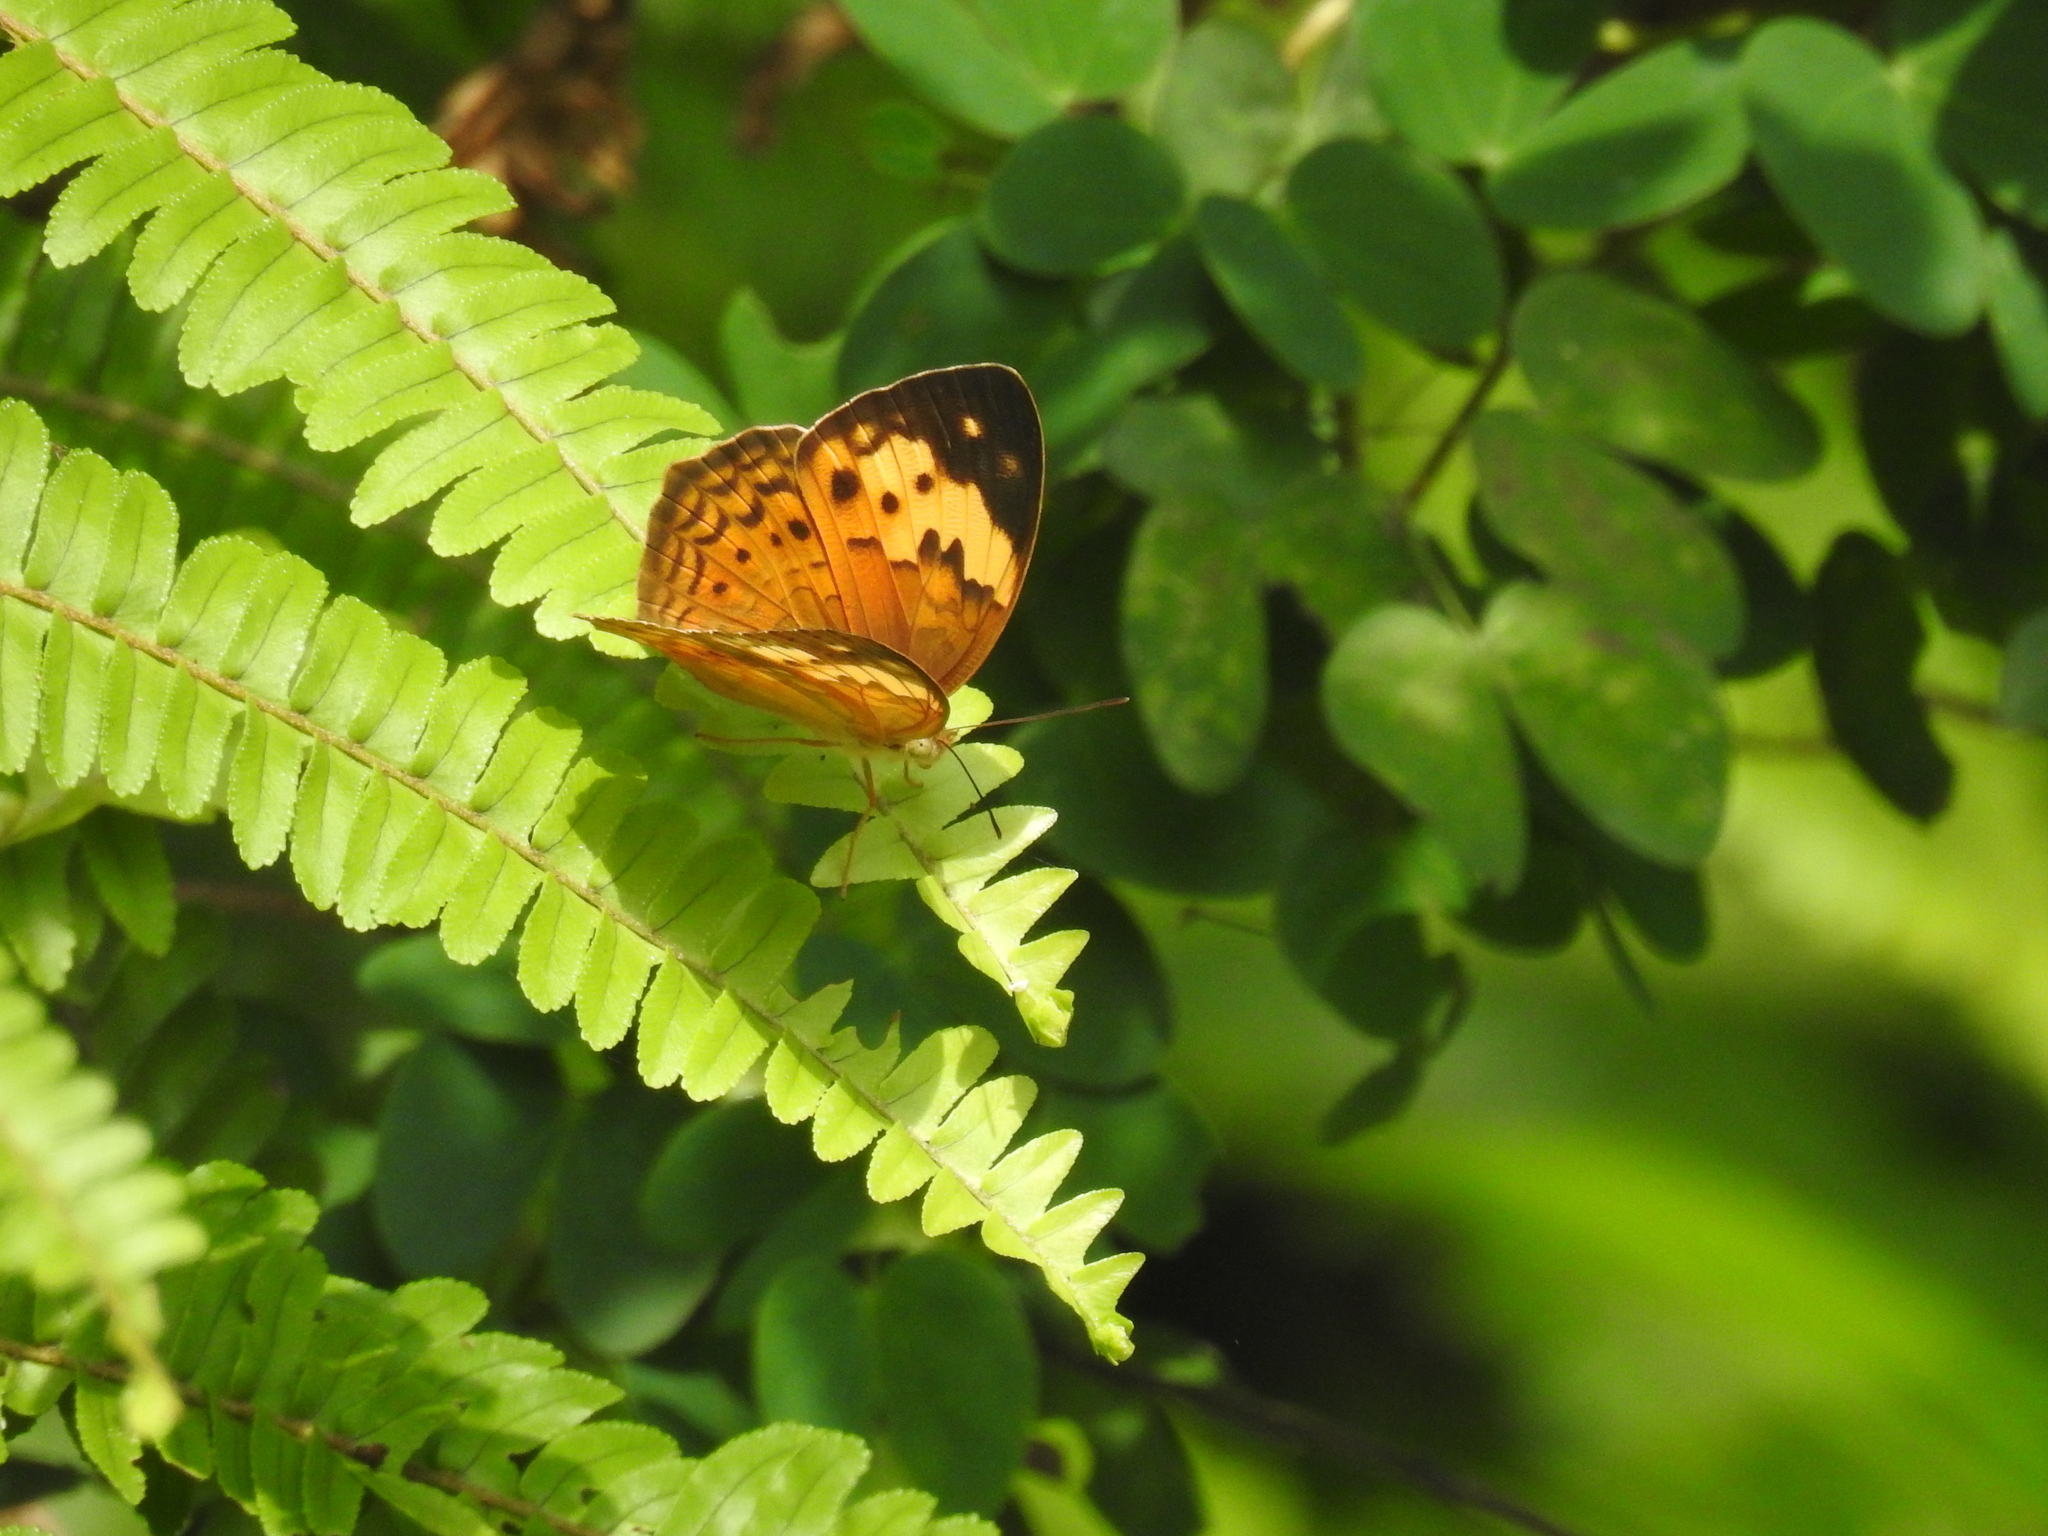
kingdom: Animalia
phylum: Arthropoda
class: Insecta
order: Lepidoptera
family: Nymphalidae
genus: Cupha
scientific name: Cupha erymanthis
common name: Rustic
